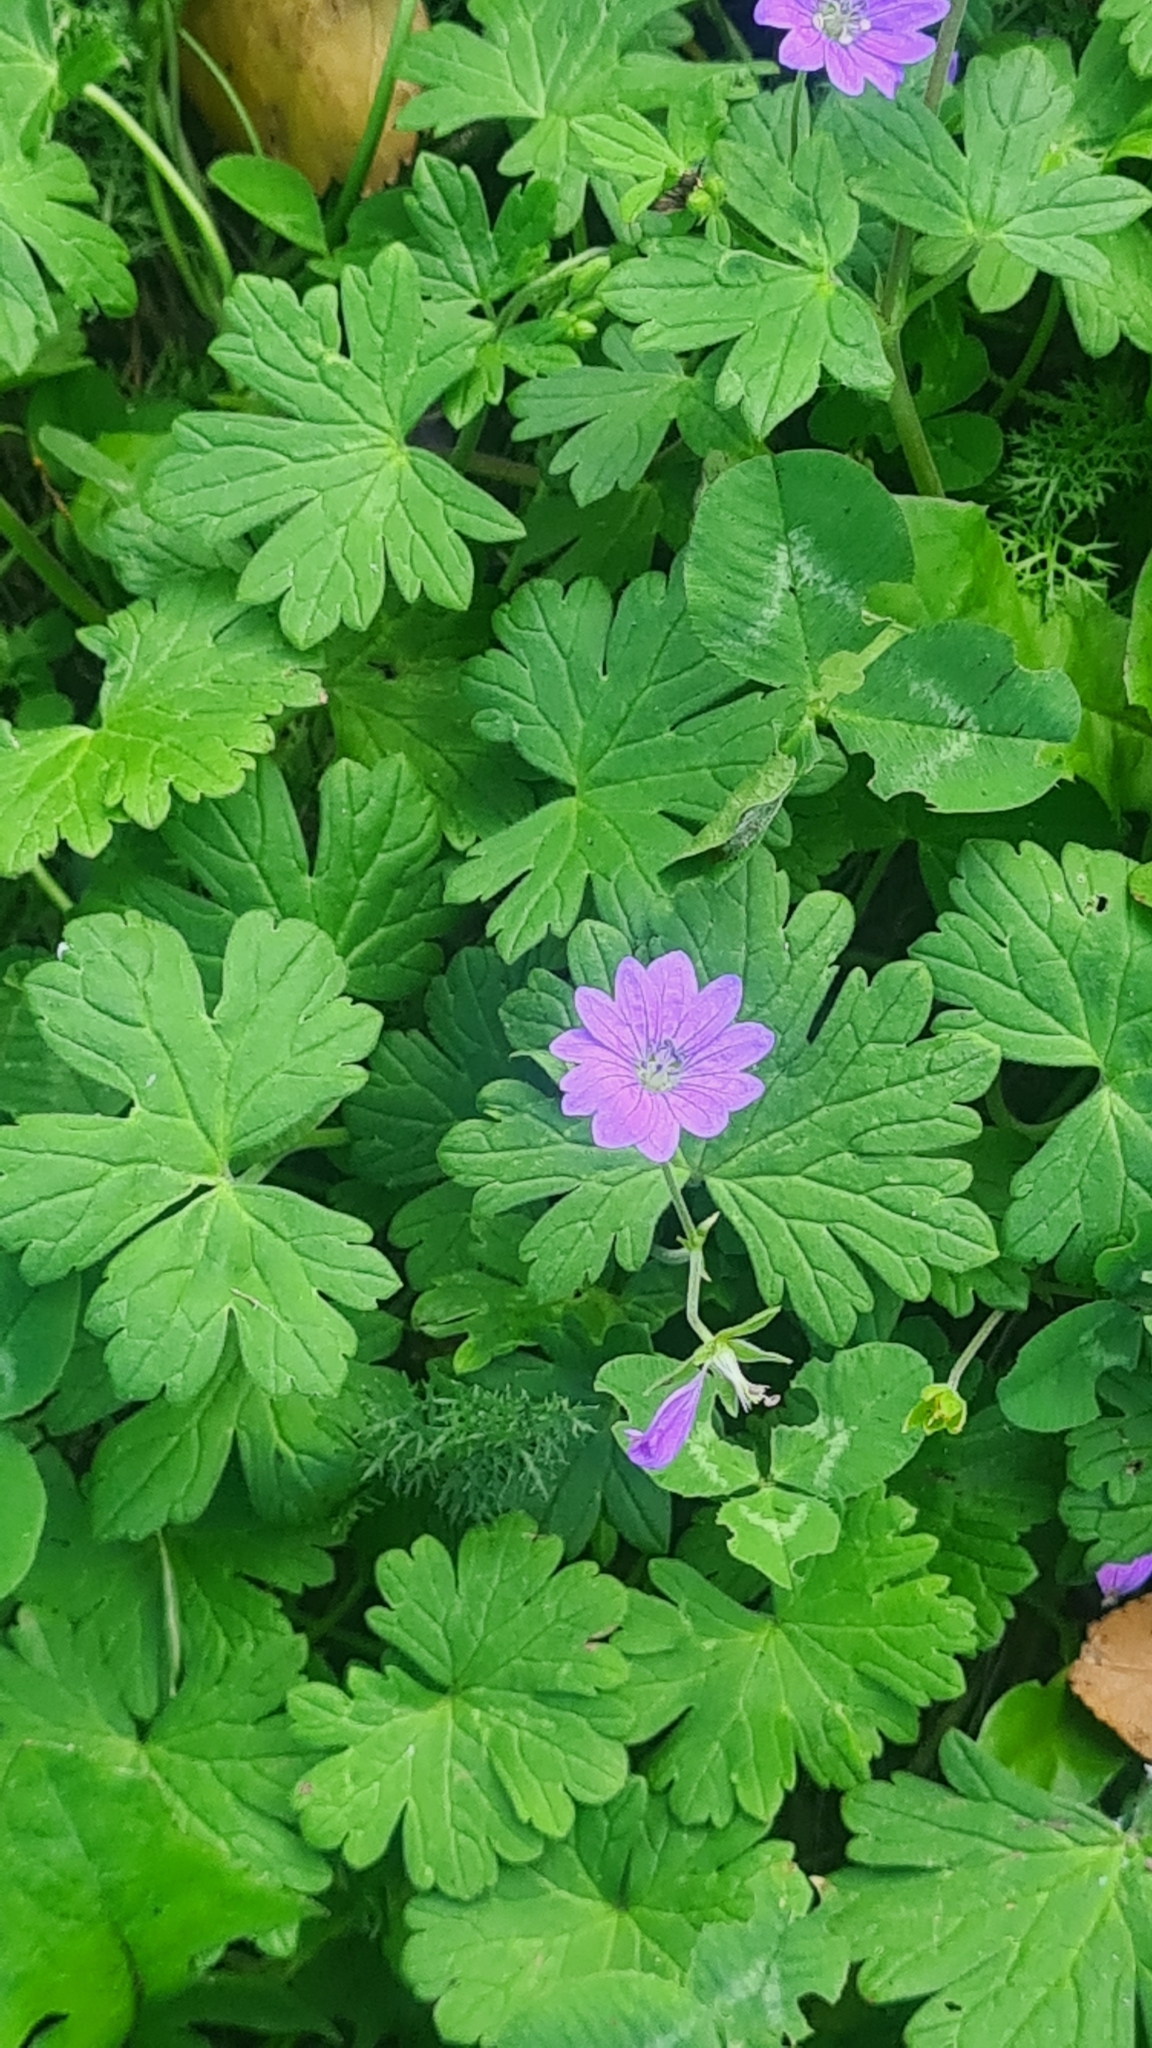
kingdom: Plantae
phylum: Tracheophyta
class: Magnoliopsida
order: Geraniales
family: Geraniaceae
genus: Geranium
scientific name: Geranium pyrenaicum
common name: Hedgerow crane's-bill
